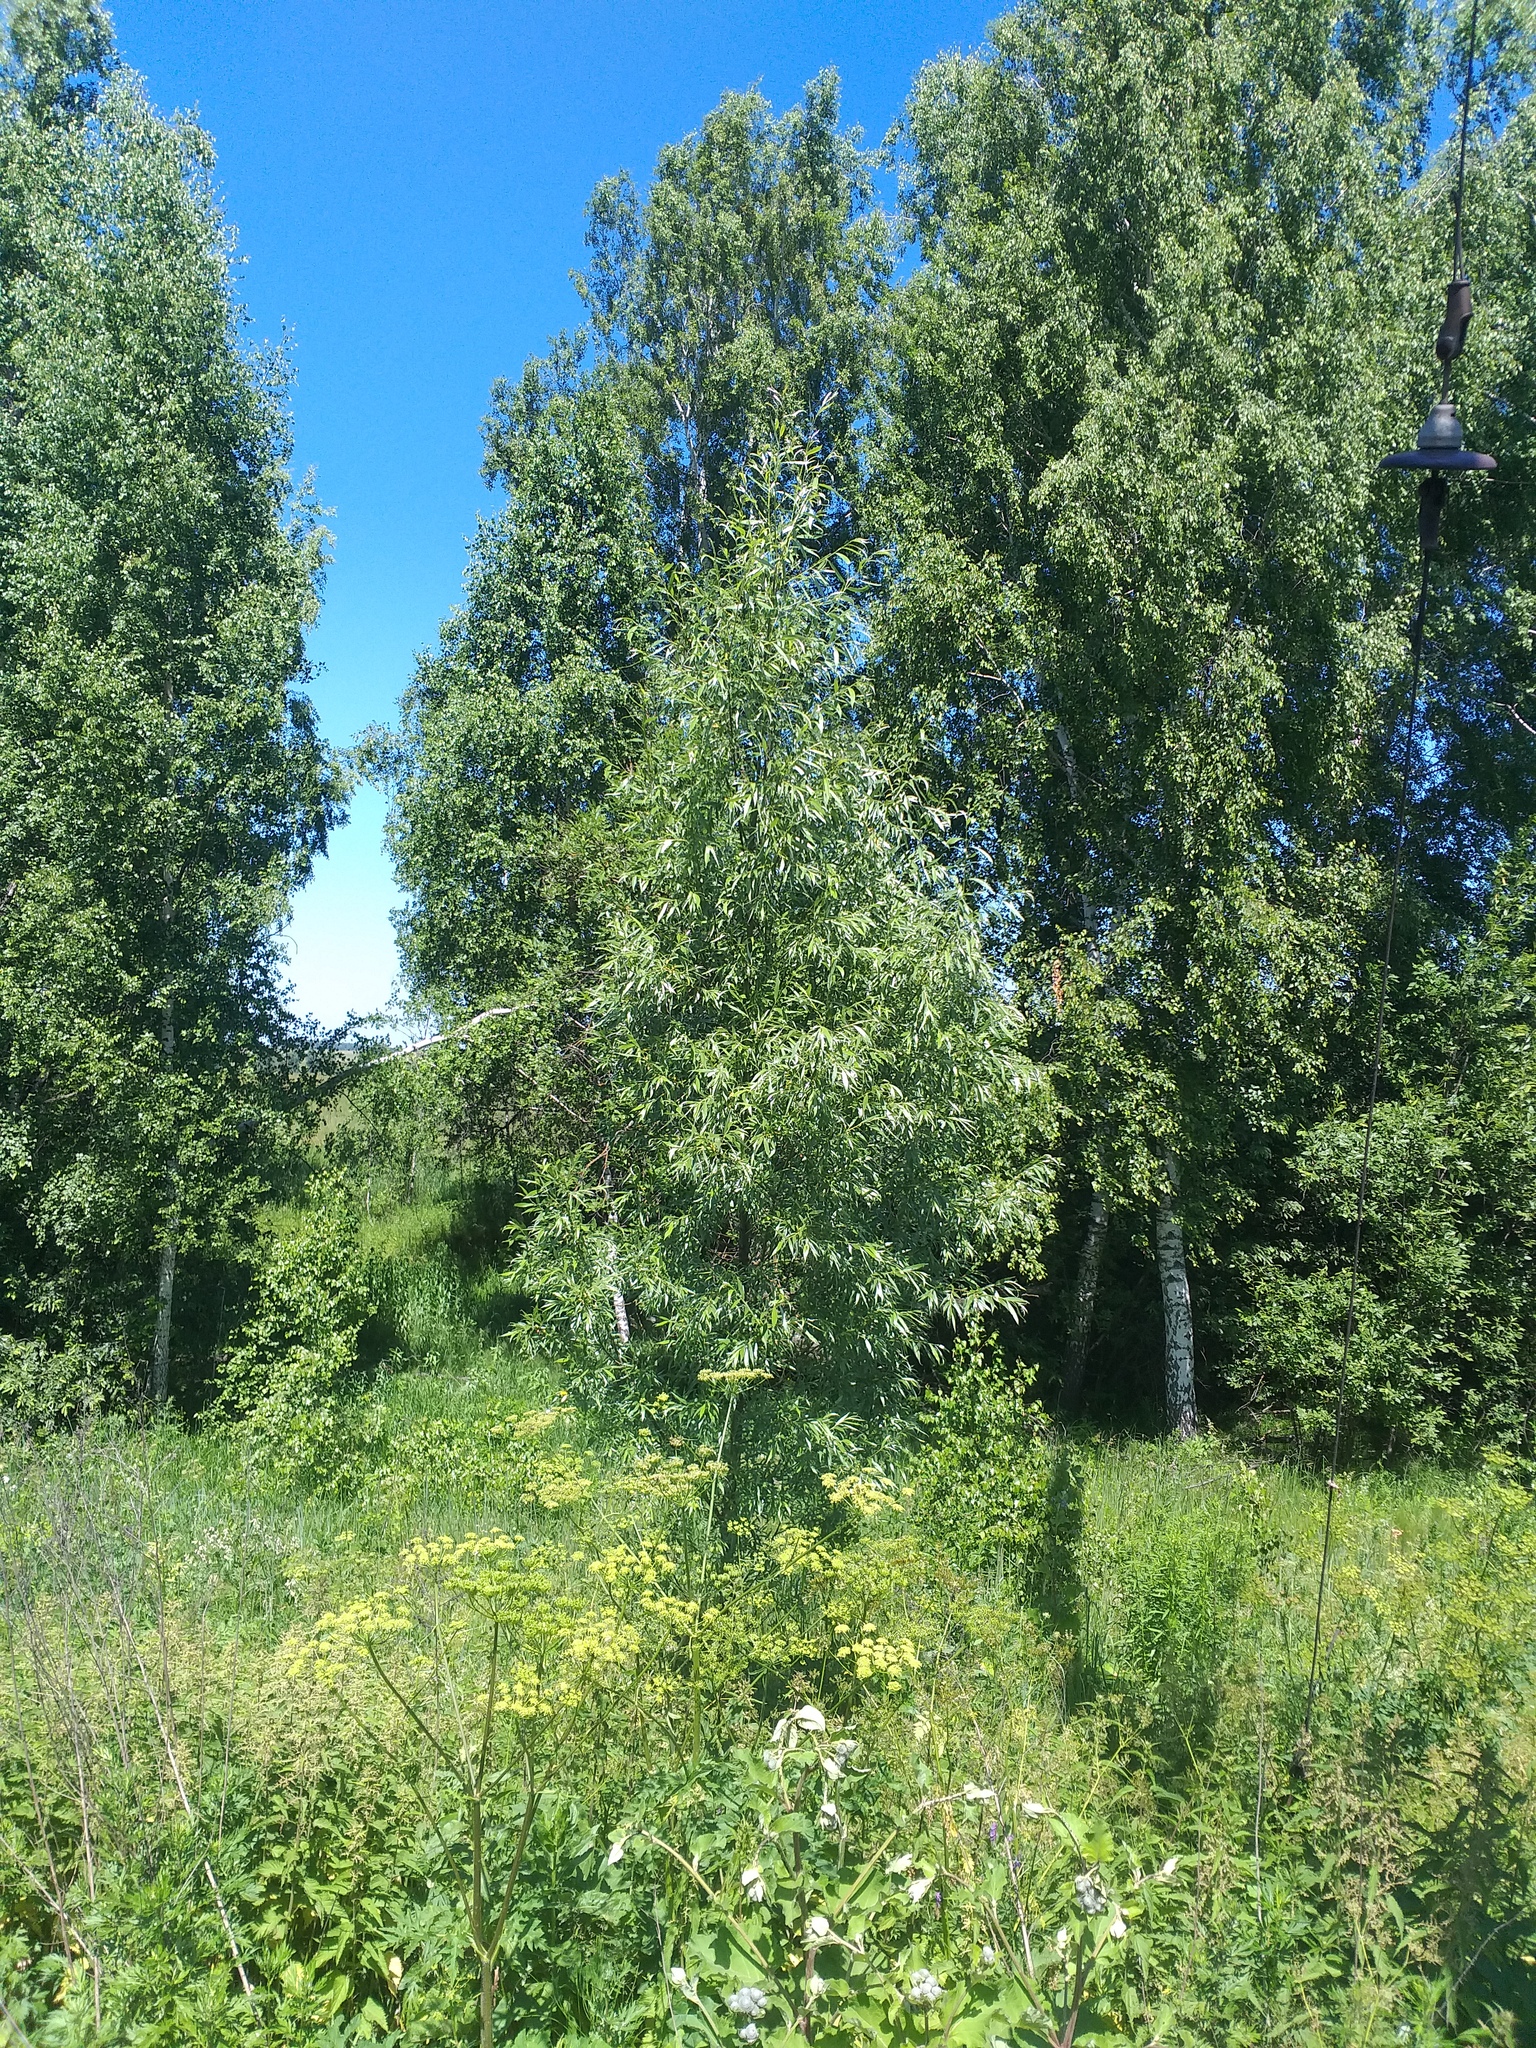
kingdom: Plantae
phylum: Tracheophyta
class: Magnoliopsida
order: Malpighiales
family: Salicaceae
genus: Salix
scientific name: Salix alba
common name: White willow
